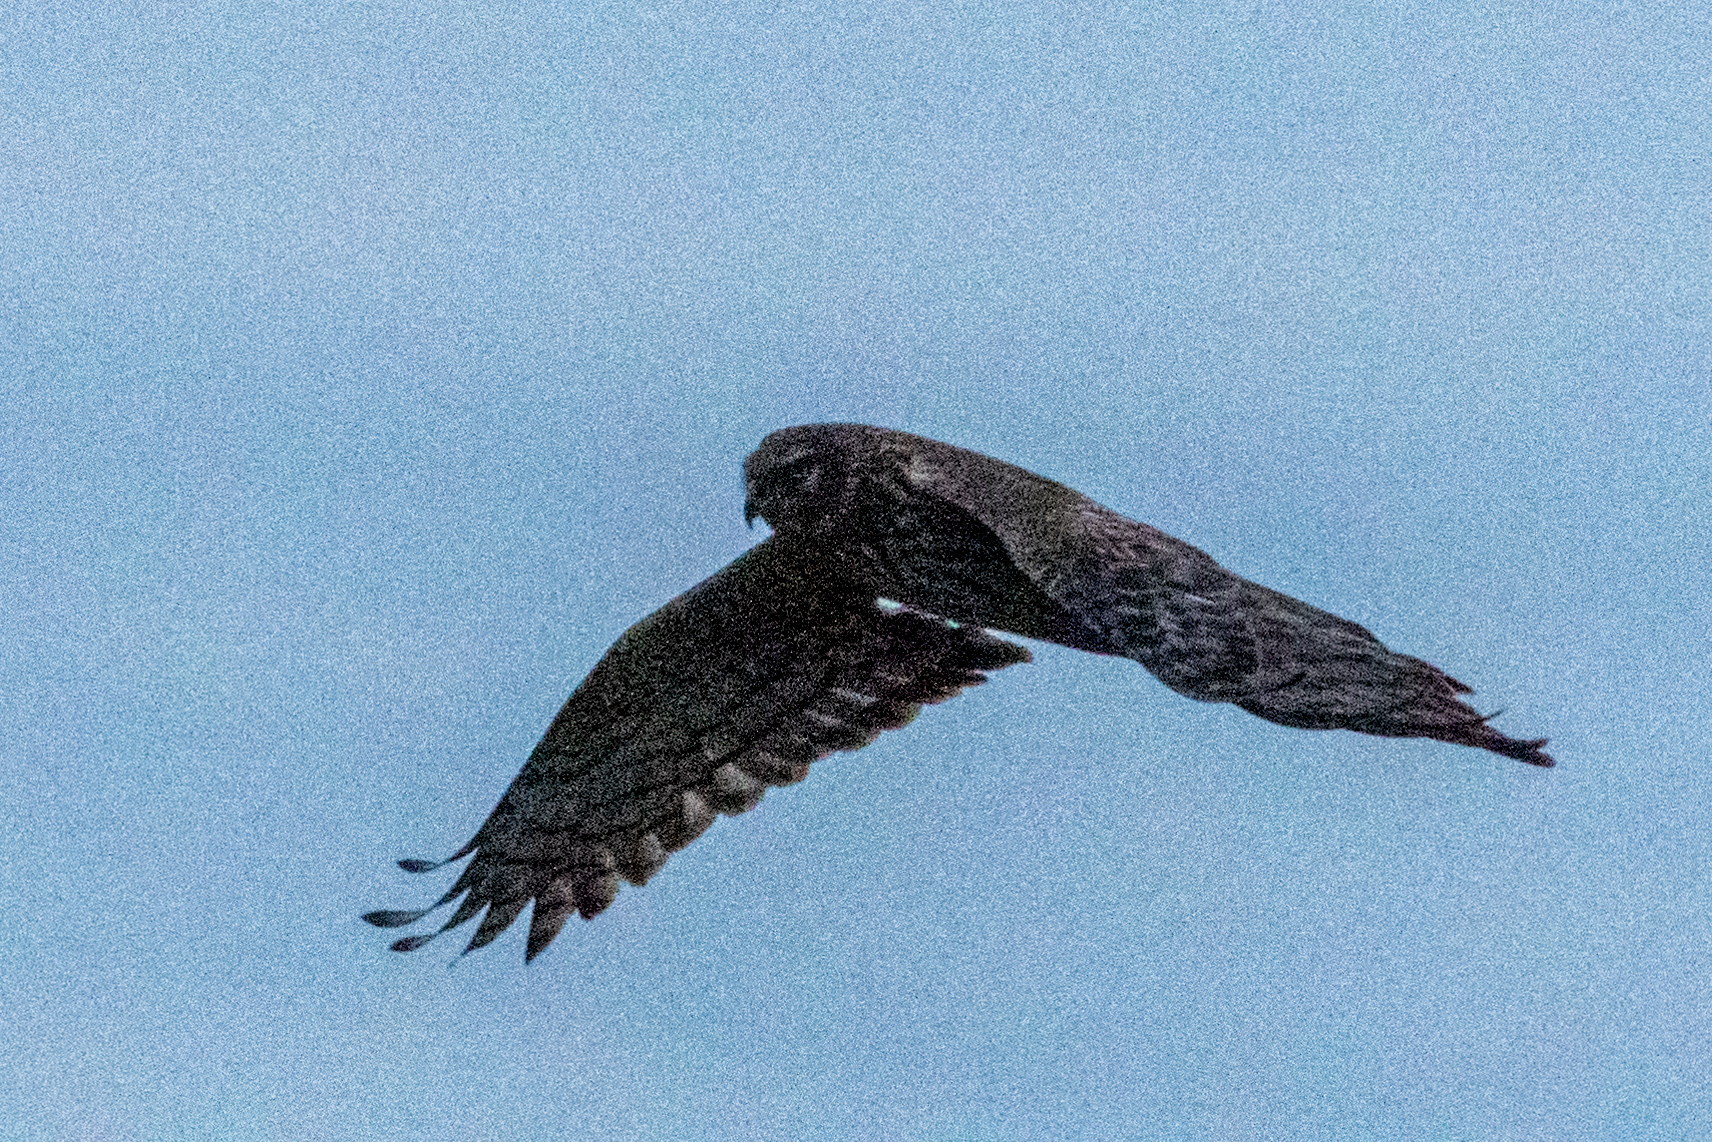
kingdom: Animalia
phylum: Chordata
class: Aves
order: Accipitriformes
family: Accipitridae
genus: Circus
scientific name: Circus cyaneus
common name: Hen harrier
